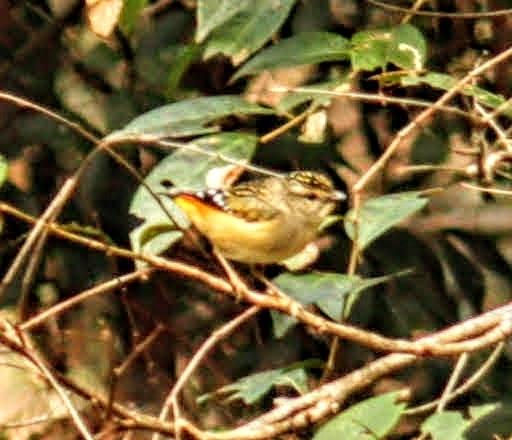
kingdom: Animalia
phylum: Chordata
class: Aves
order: Passeriformes
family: Pardalotidae
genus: Pardalotus
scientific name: Pardalotus punctatus
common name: Spotted pardalote
